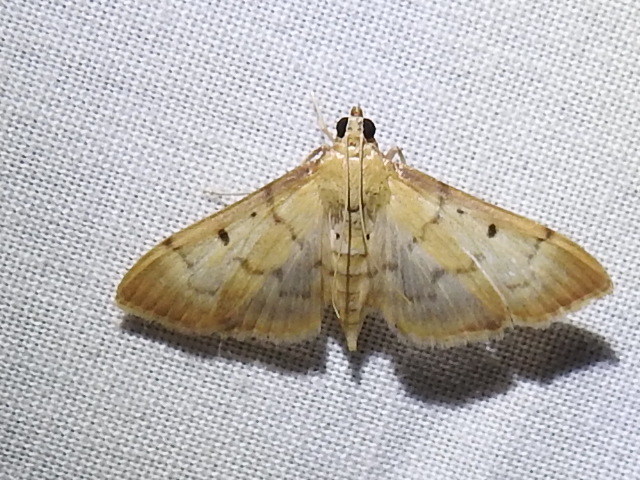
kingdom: Animalia
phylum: Arthropoda
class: Insecta
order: Lepidoptera
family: Crambidae
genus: Herpetogramma
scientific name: Herpetogramma bipunctalis
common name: Southern beet webworm
